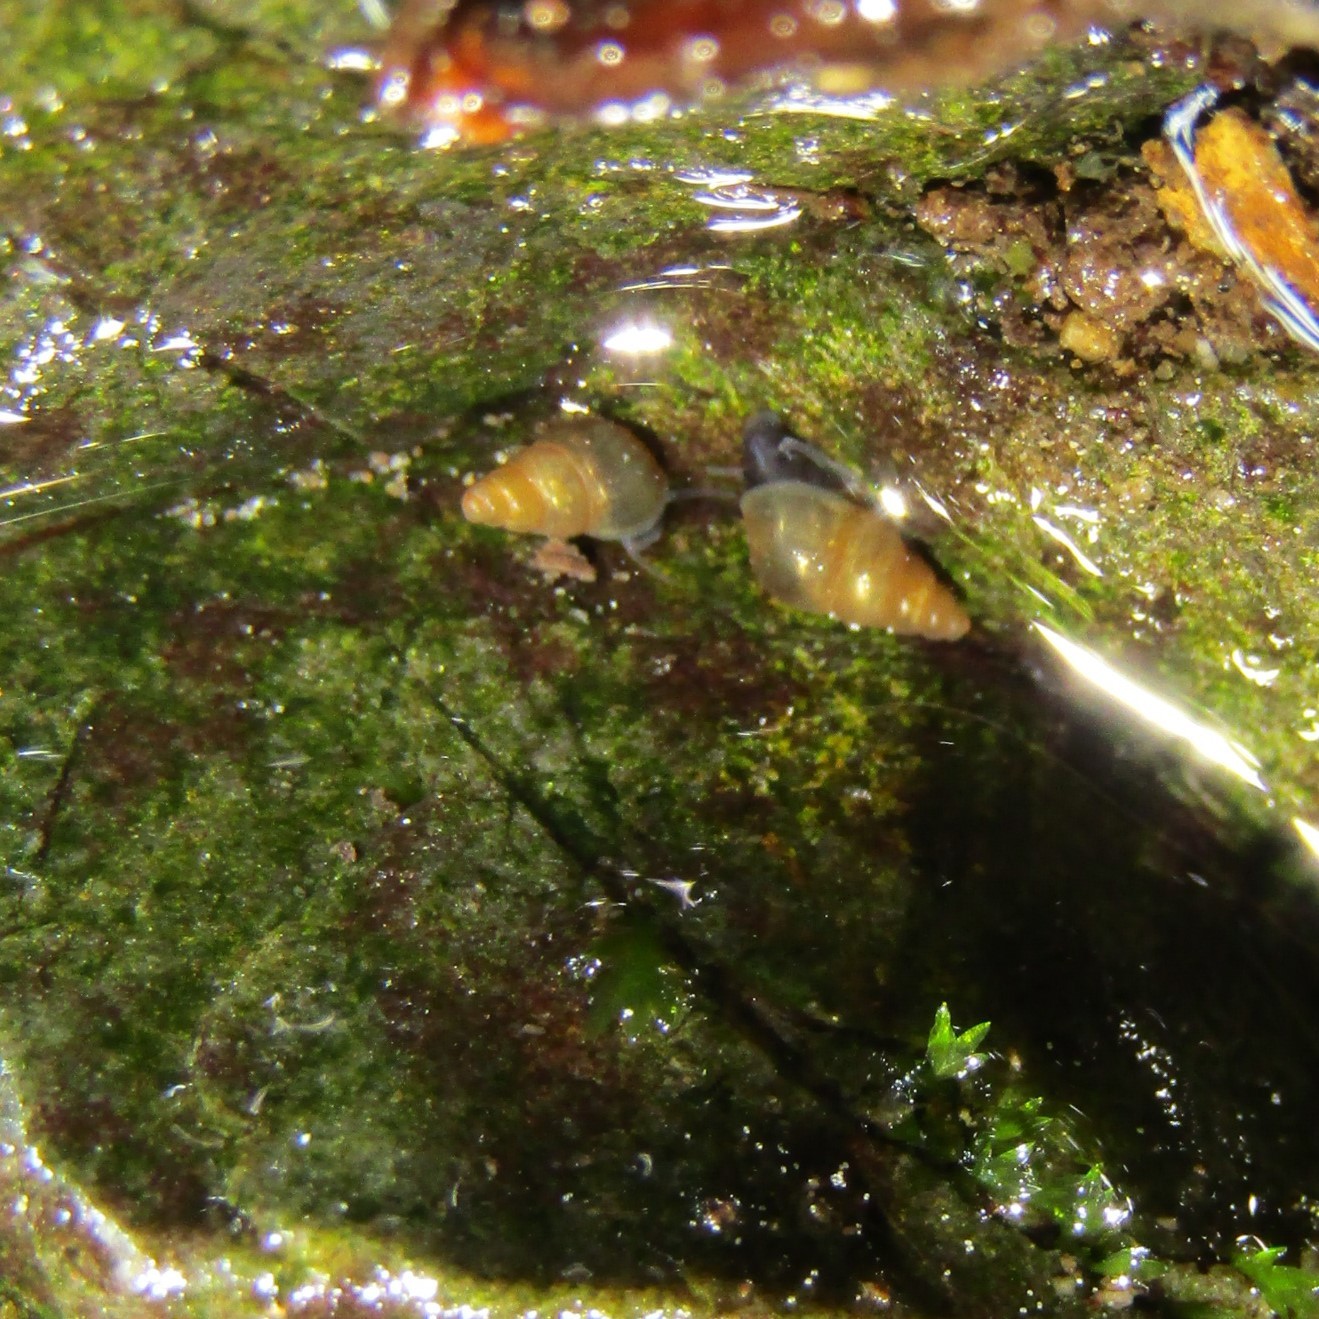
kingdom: Animalia
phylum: Mollusca
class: Gastropoda
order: Littorinimorpha
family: Tateidae
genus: Potamopyrgus
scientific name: Potamopyrgus antipodarum
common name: Jenkins' spire snail
